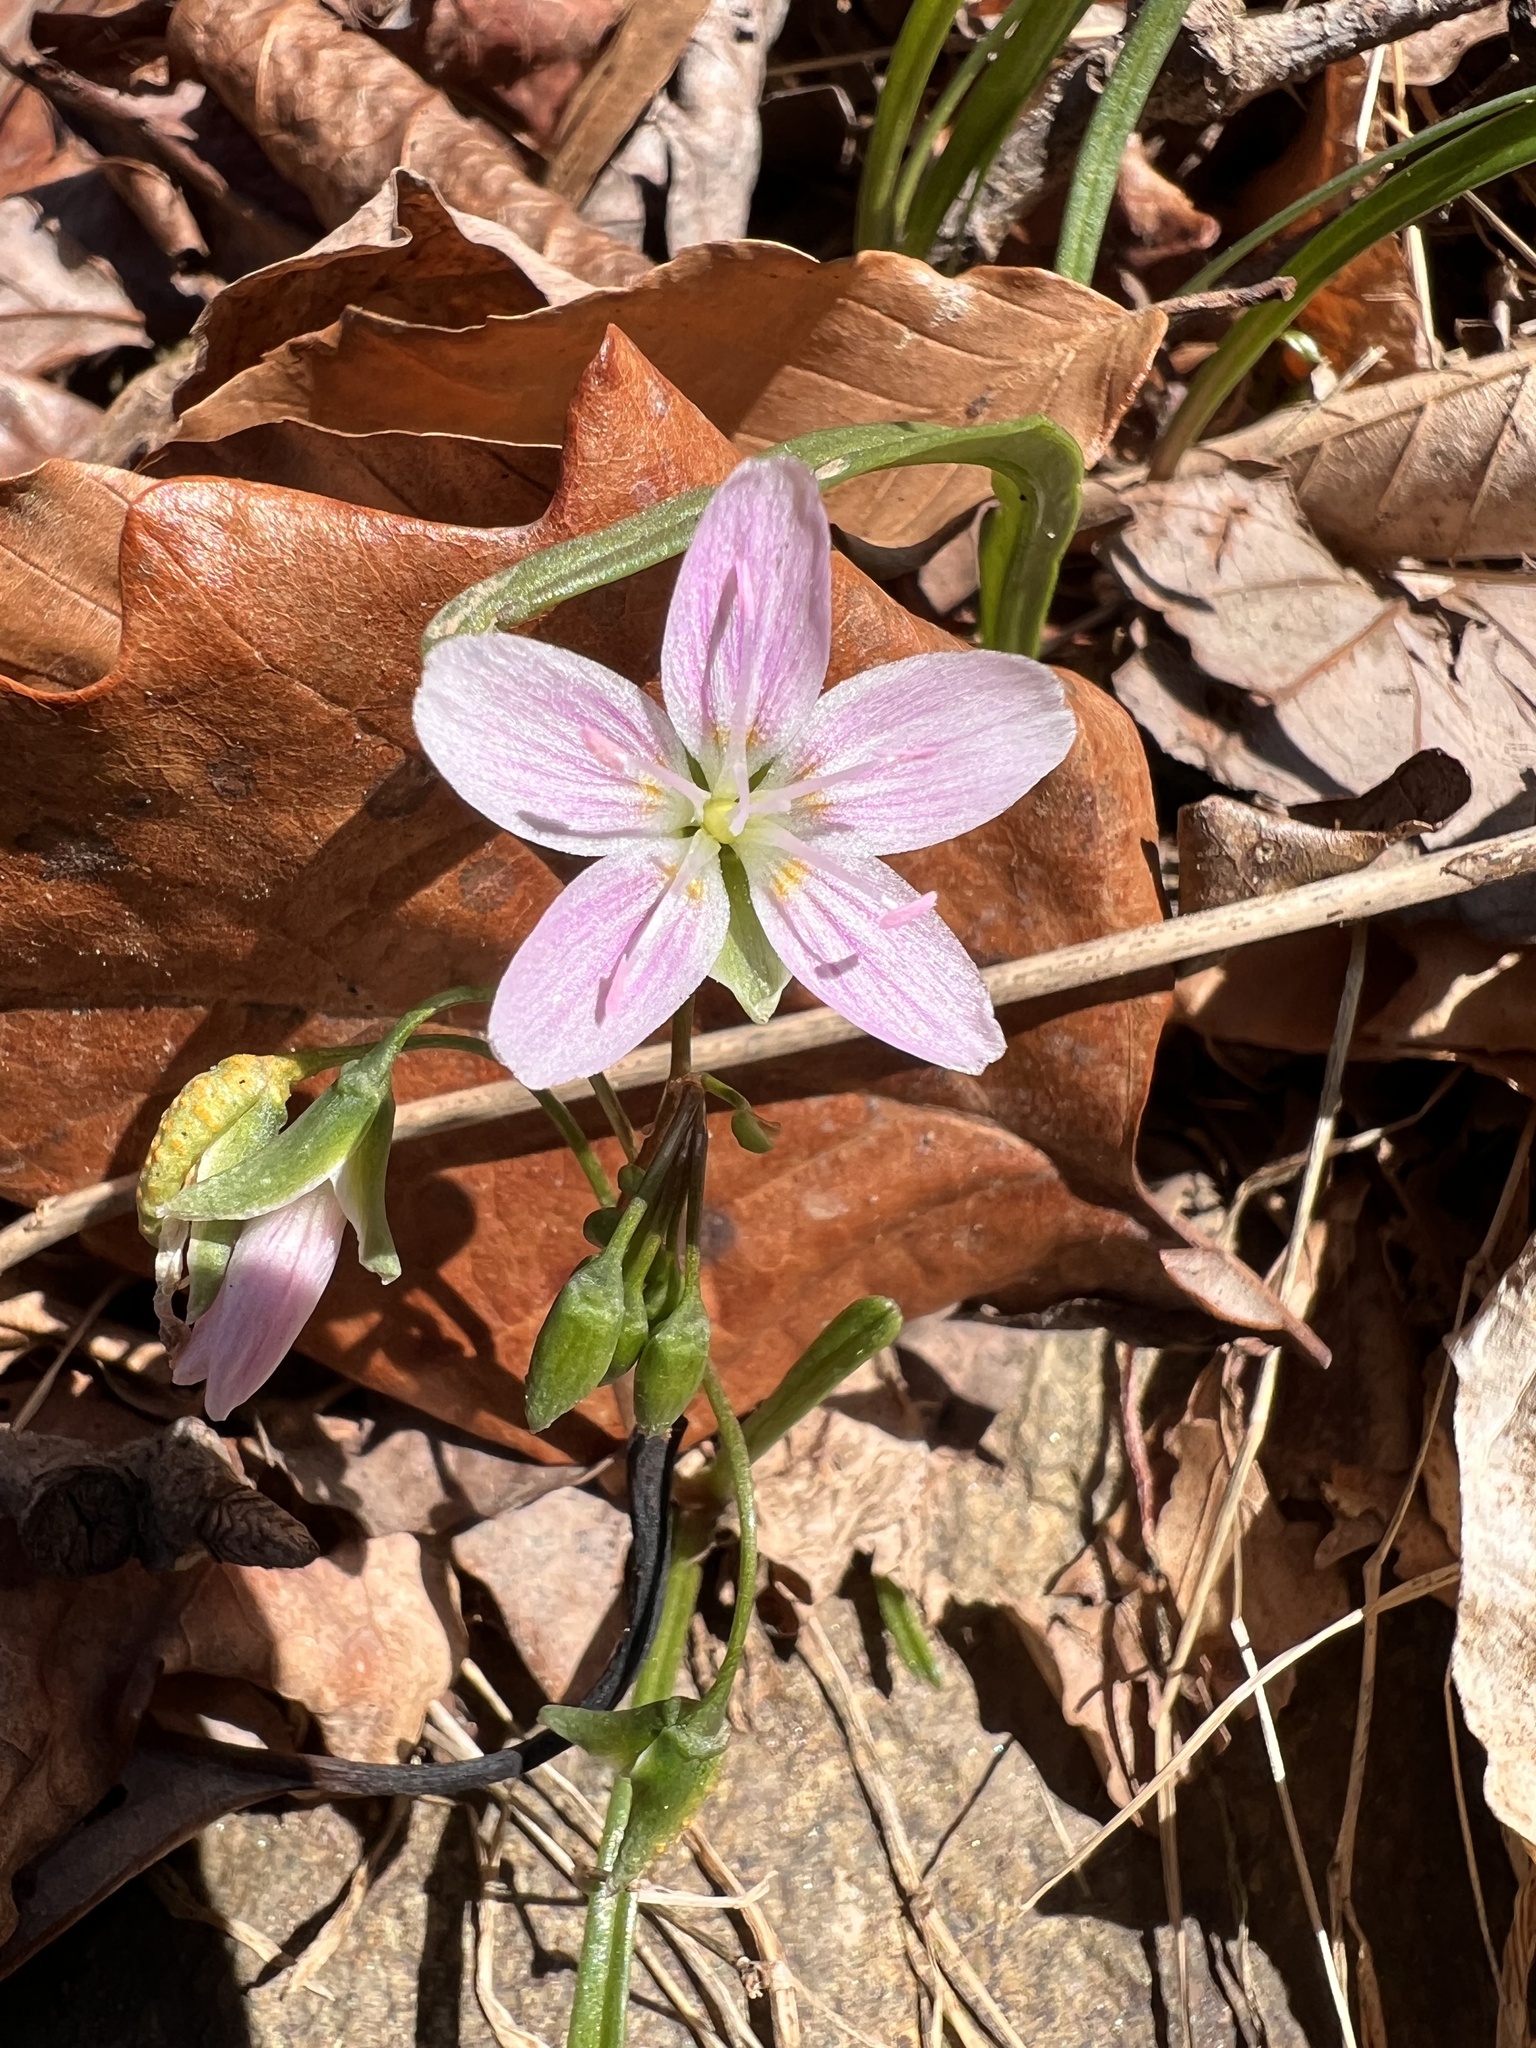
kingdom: Plantae
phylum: Tracheophyta
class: Magnoliopsida
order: Caryophyllales
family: Montiaceae
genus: Claytonia
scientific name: Claytonia virginica
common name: Virginia springbeauty
